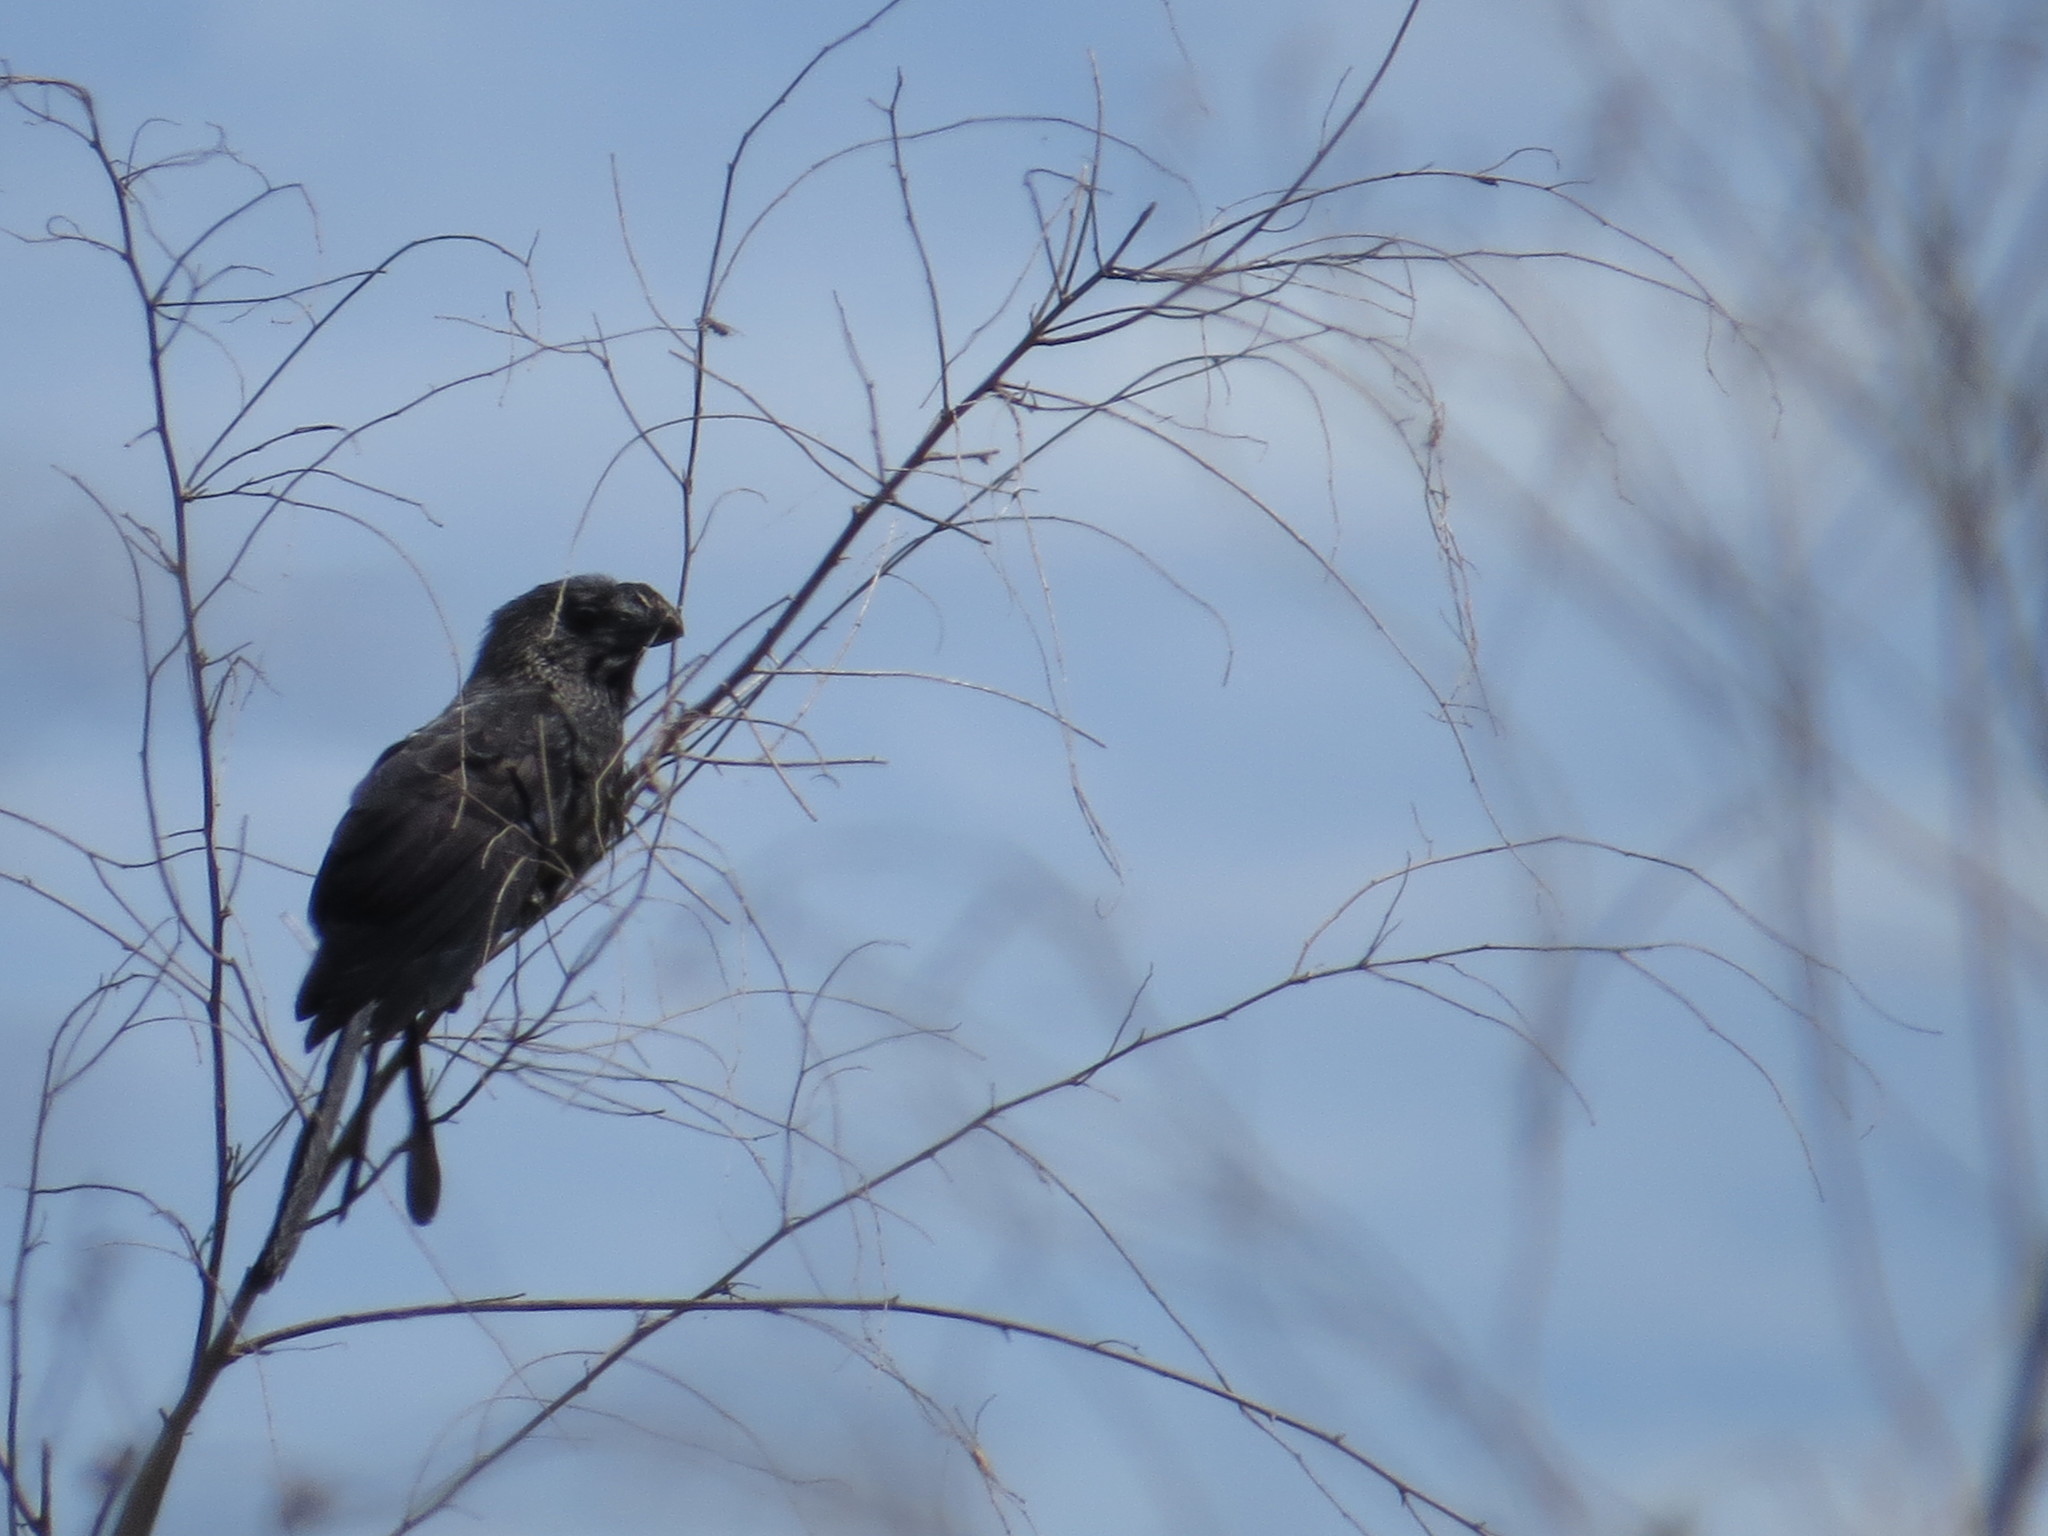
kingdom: Animalia
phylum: Chordata
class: Aves
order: Cuculiformes
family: Cuculidae
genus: Crotophaga
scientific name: Crotophaga ani
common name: Smooth-billed ani
